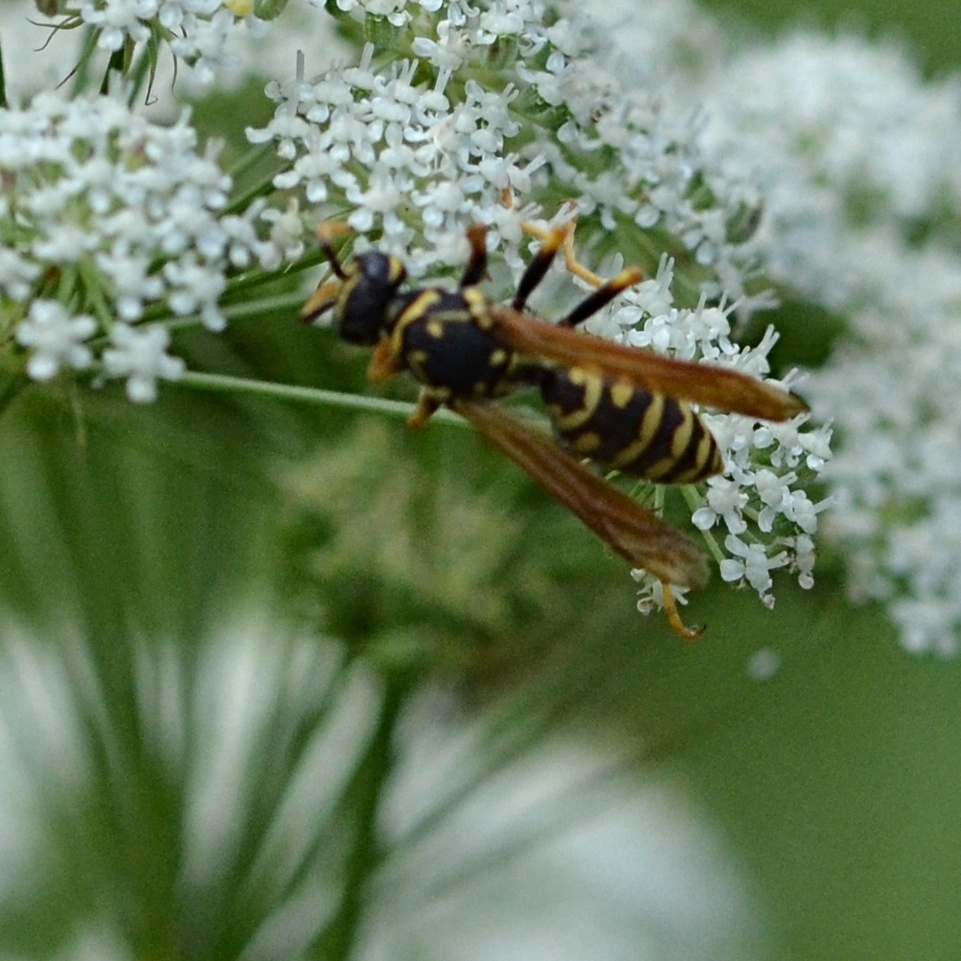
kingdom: Animalia
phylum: Arthropoda
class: Insecta
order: Hymenoptera
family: Eumenidae
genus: Polistes
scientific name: Polistes dominula
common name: Paper wasp
